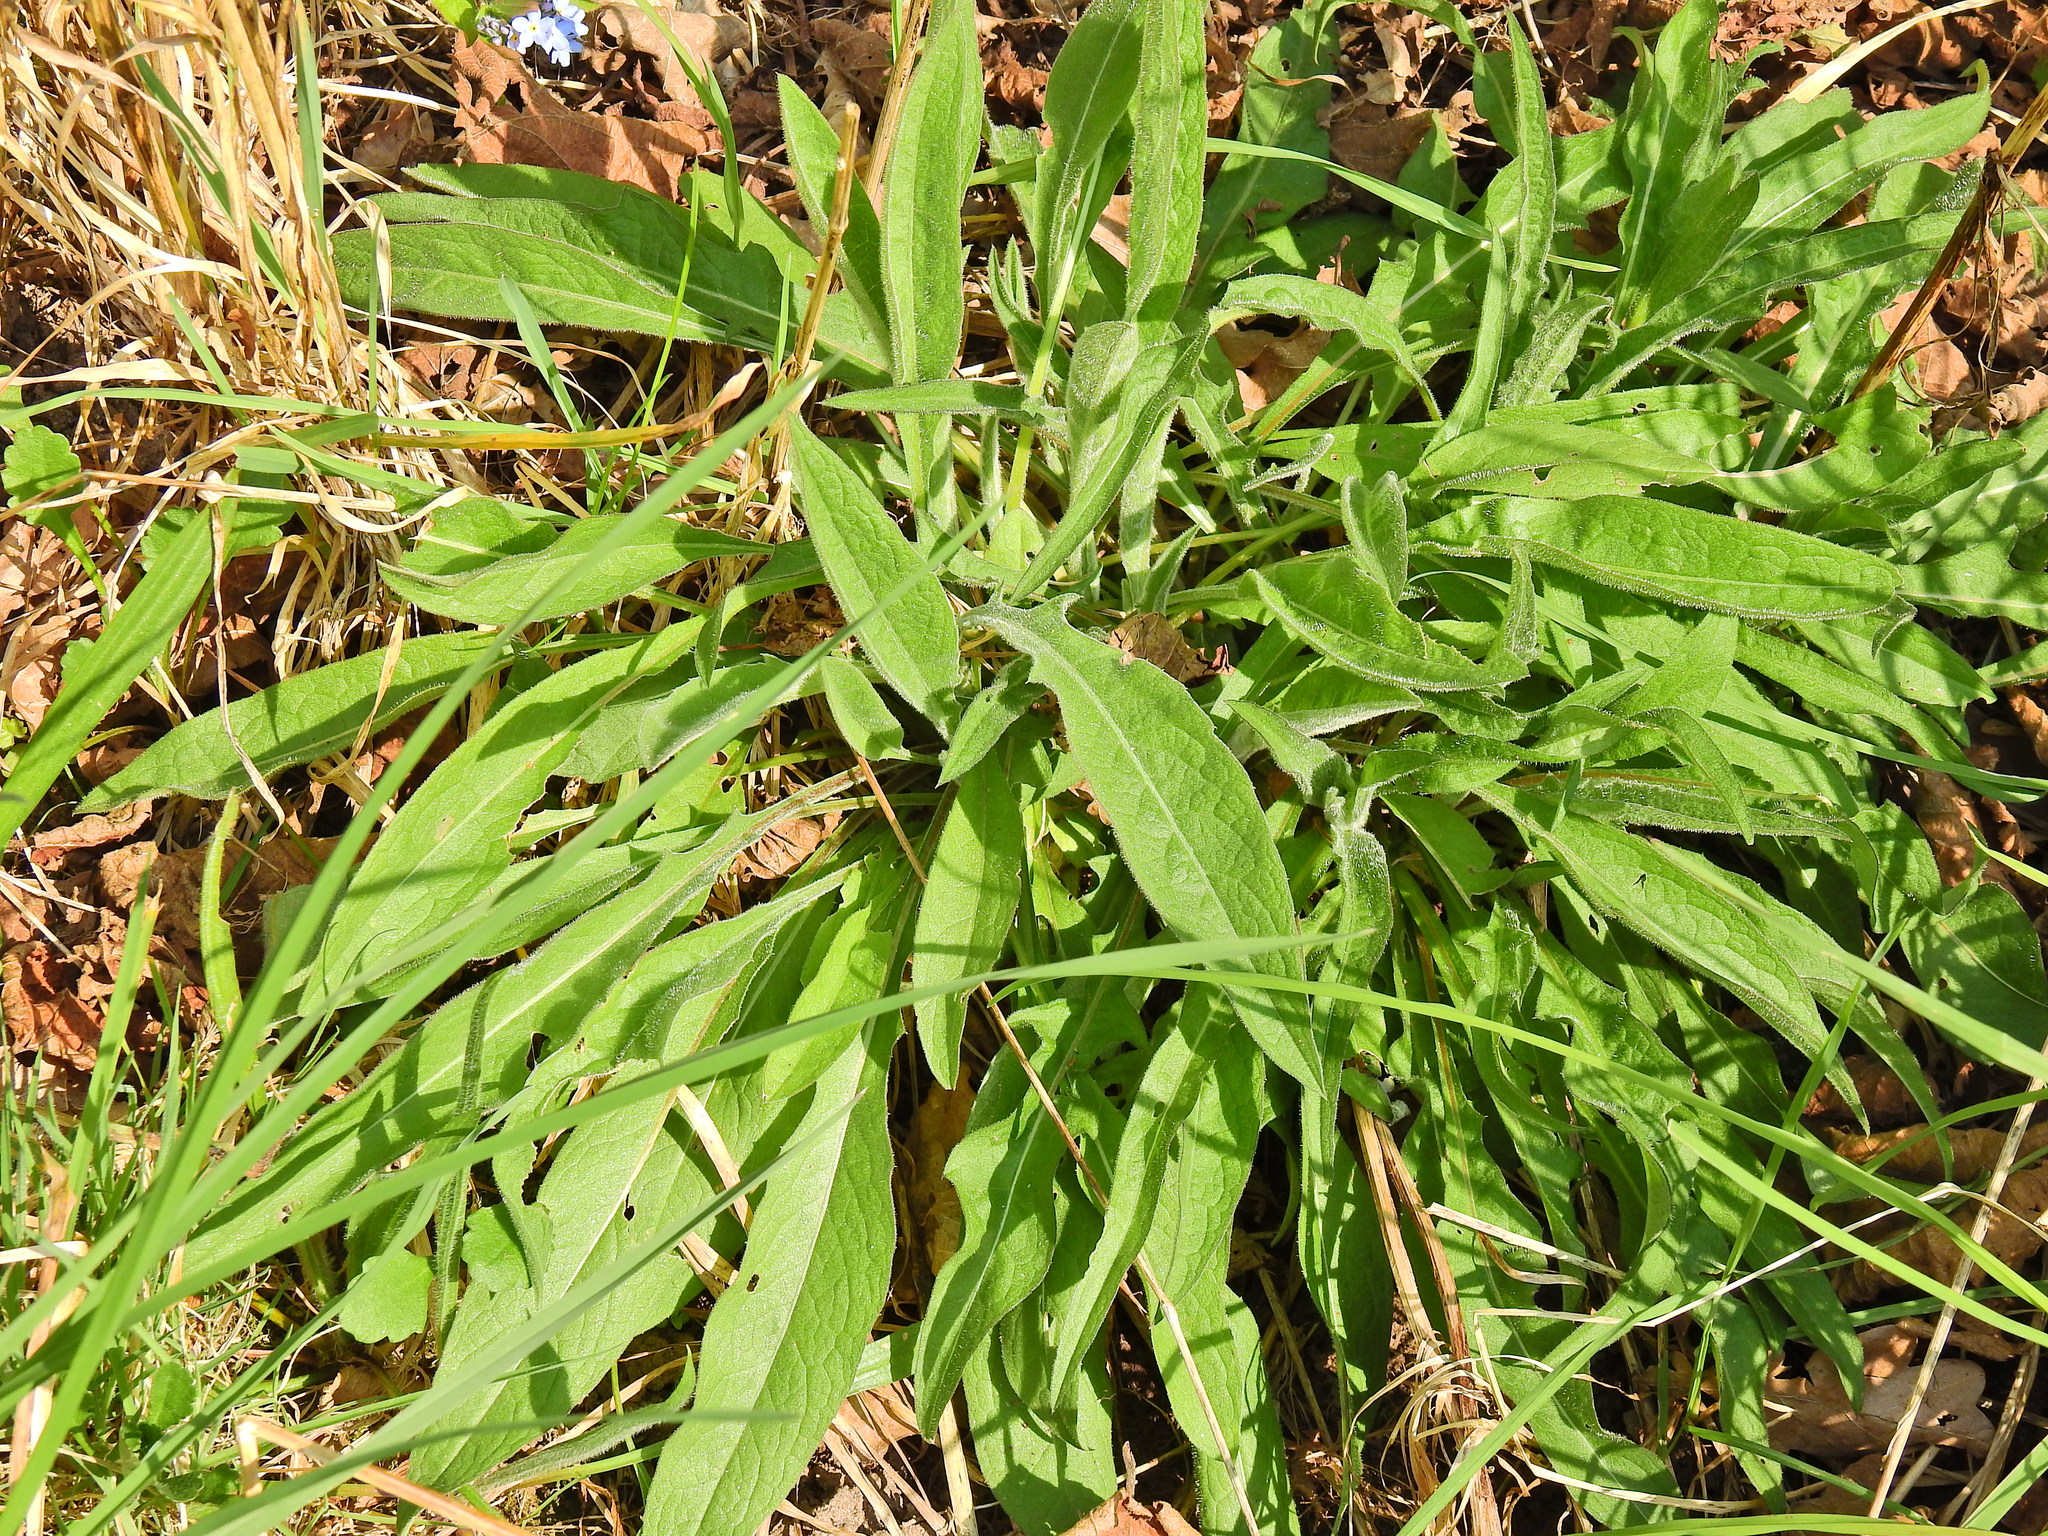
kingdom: Plantae
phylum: Tracheophyta
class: Magnoliopsida
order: Asterales
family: Asteraceae
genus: Centaurea
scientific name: Centaurea nigra
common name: Lesser knapweed
